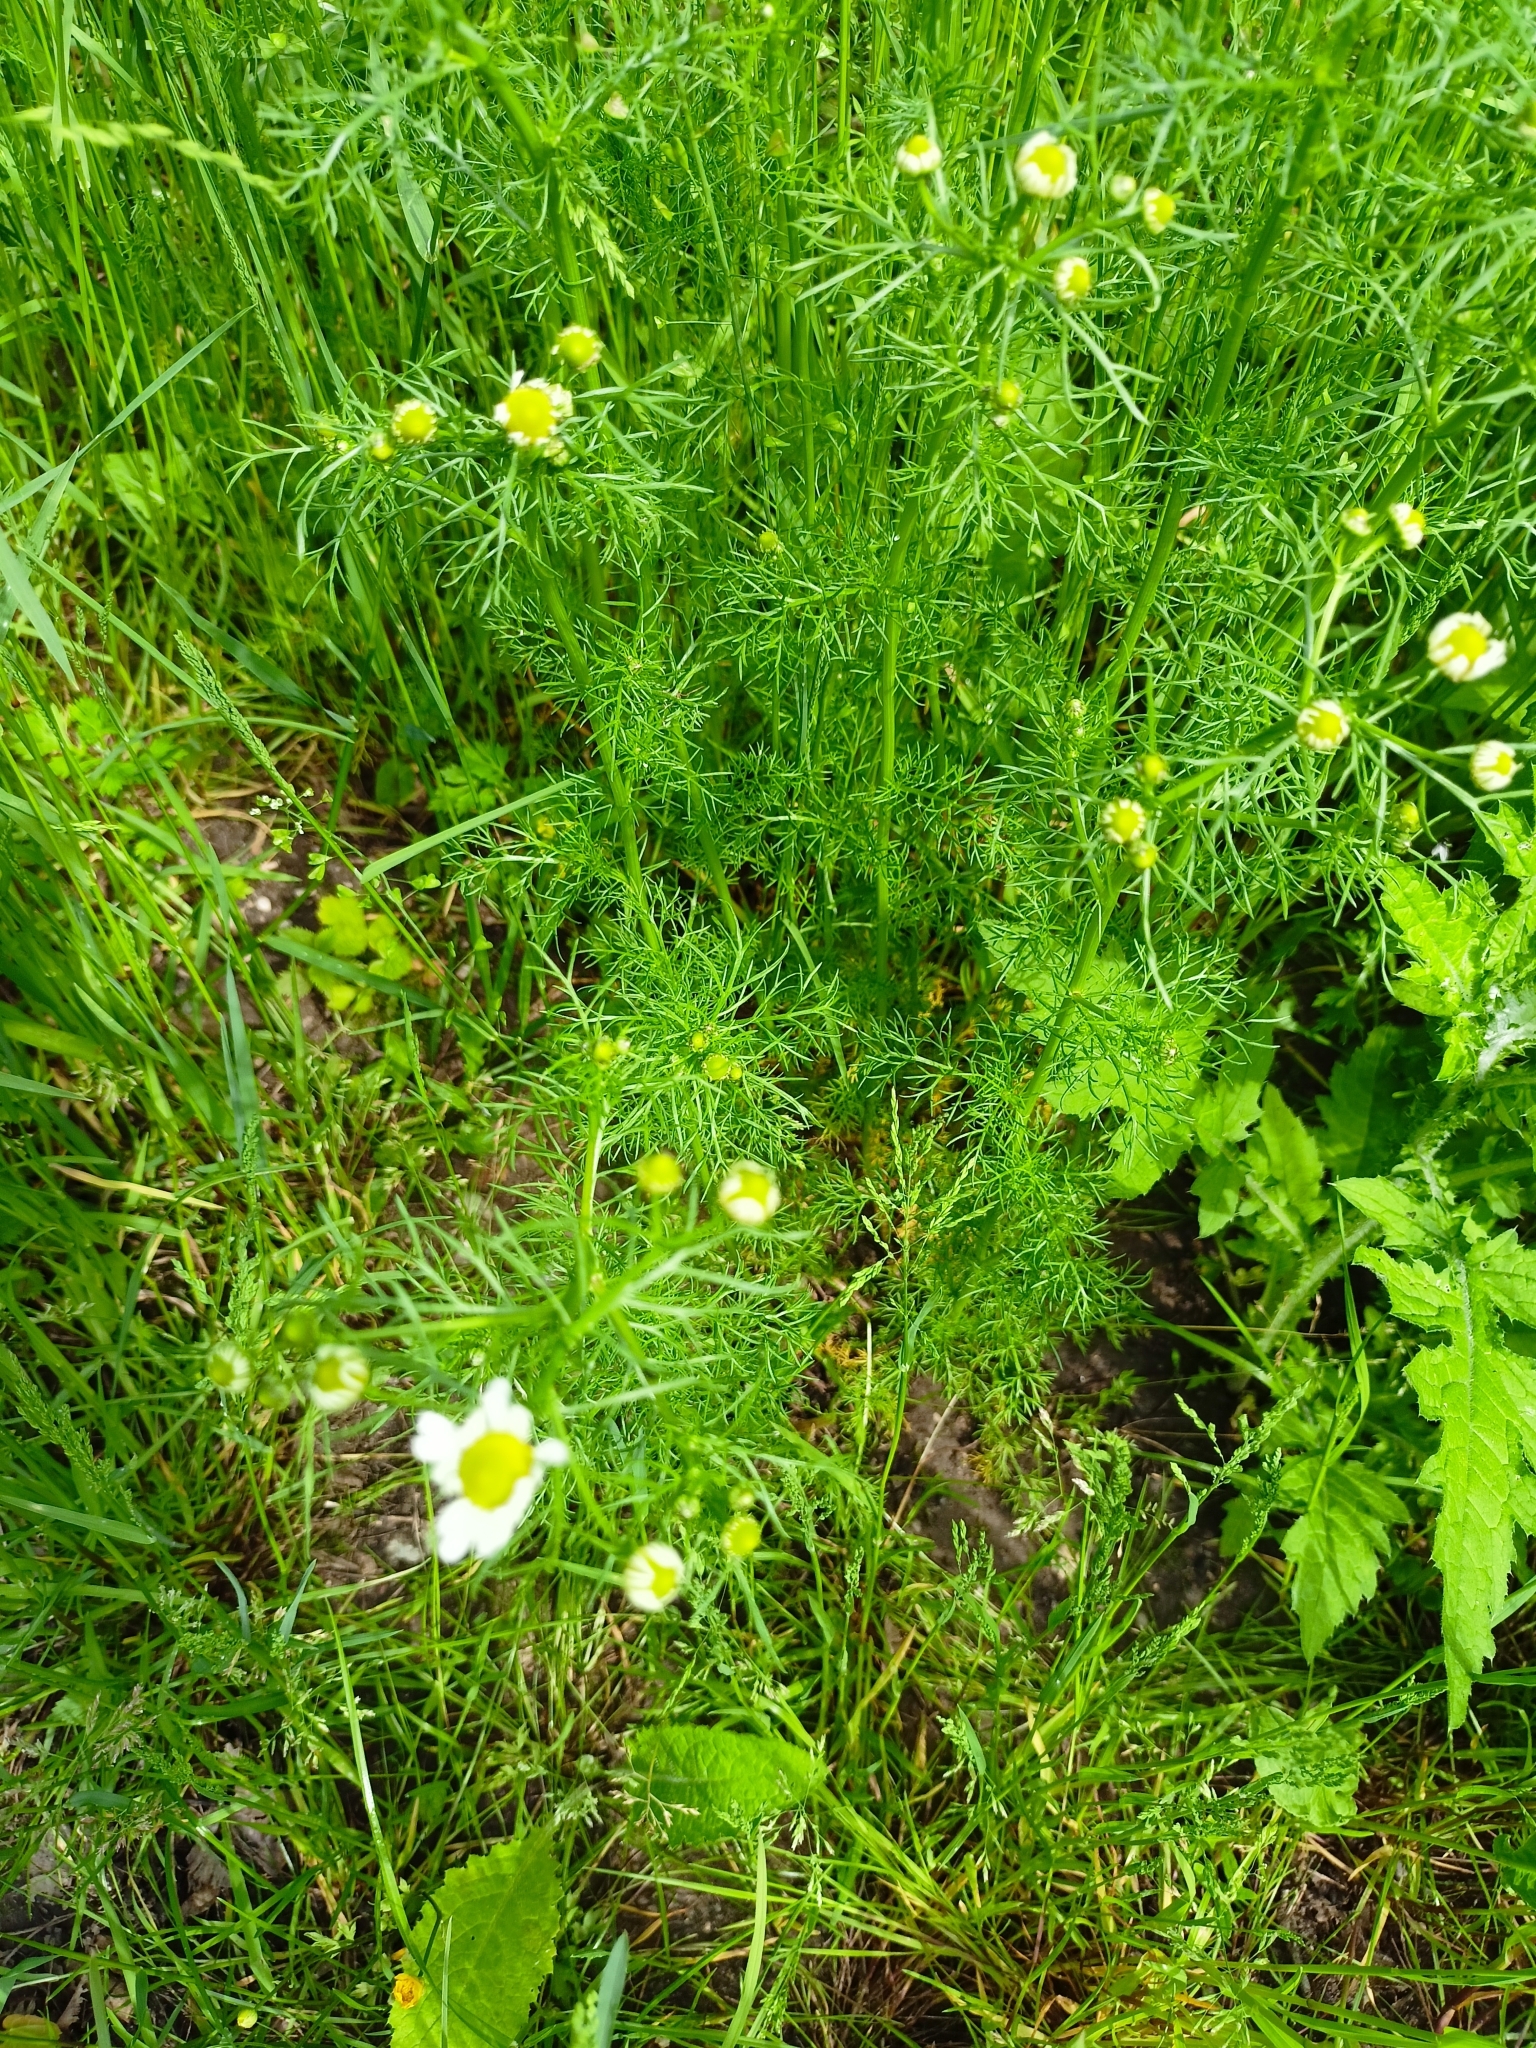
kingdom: Plantae
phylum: Tracheophyta
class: Magnoliopsida
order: Asterales
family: Asteraceae
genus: Matricaria
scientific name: Matricaria chamomilla
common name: Scented mayweed
